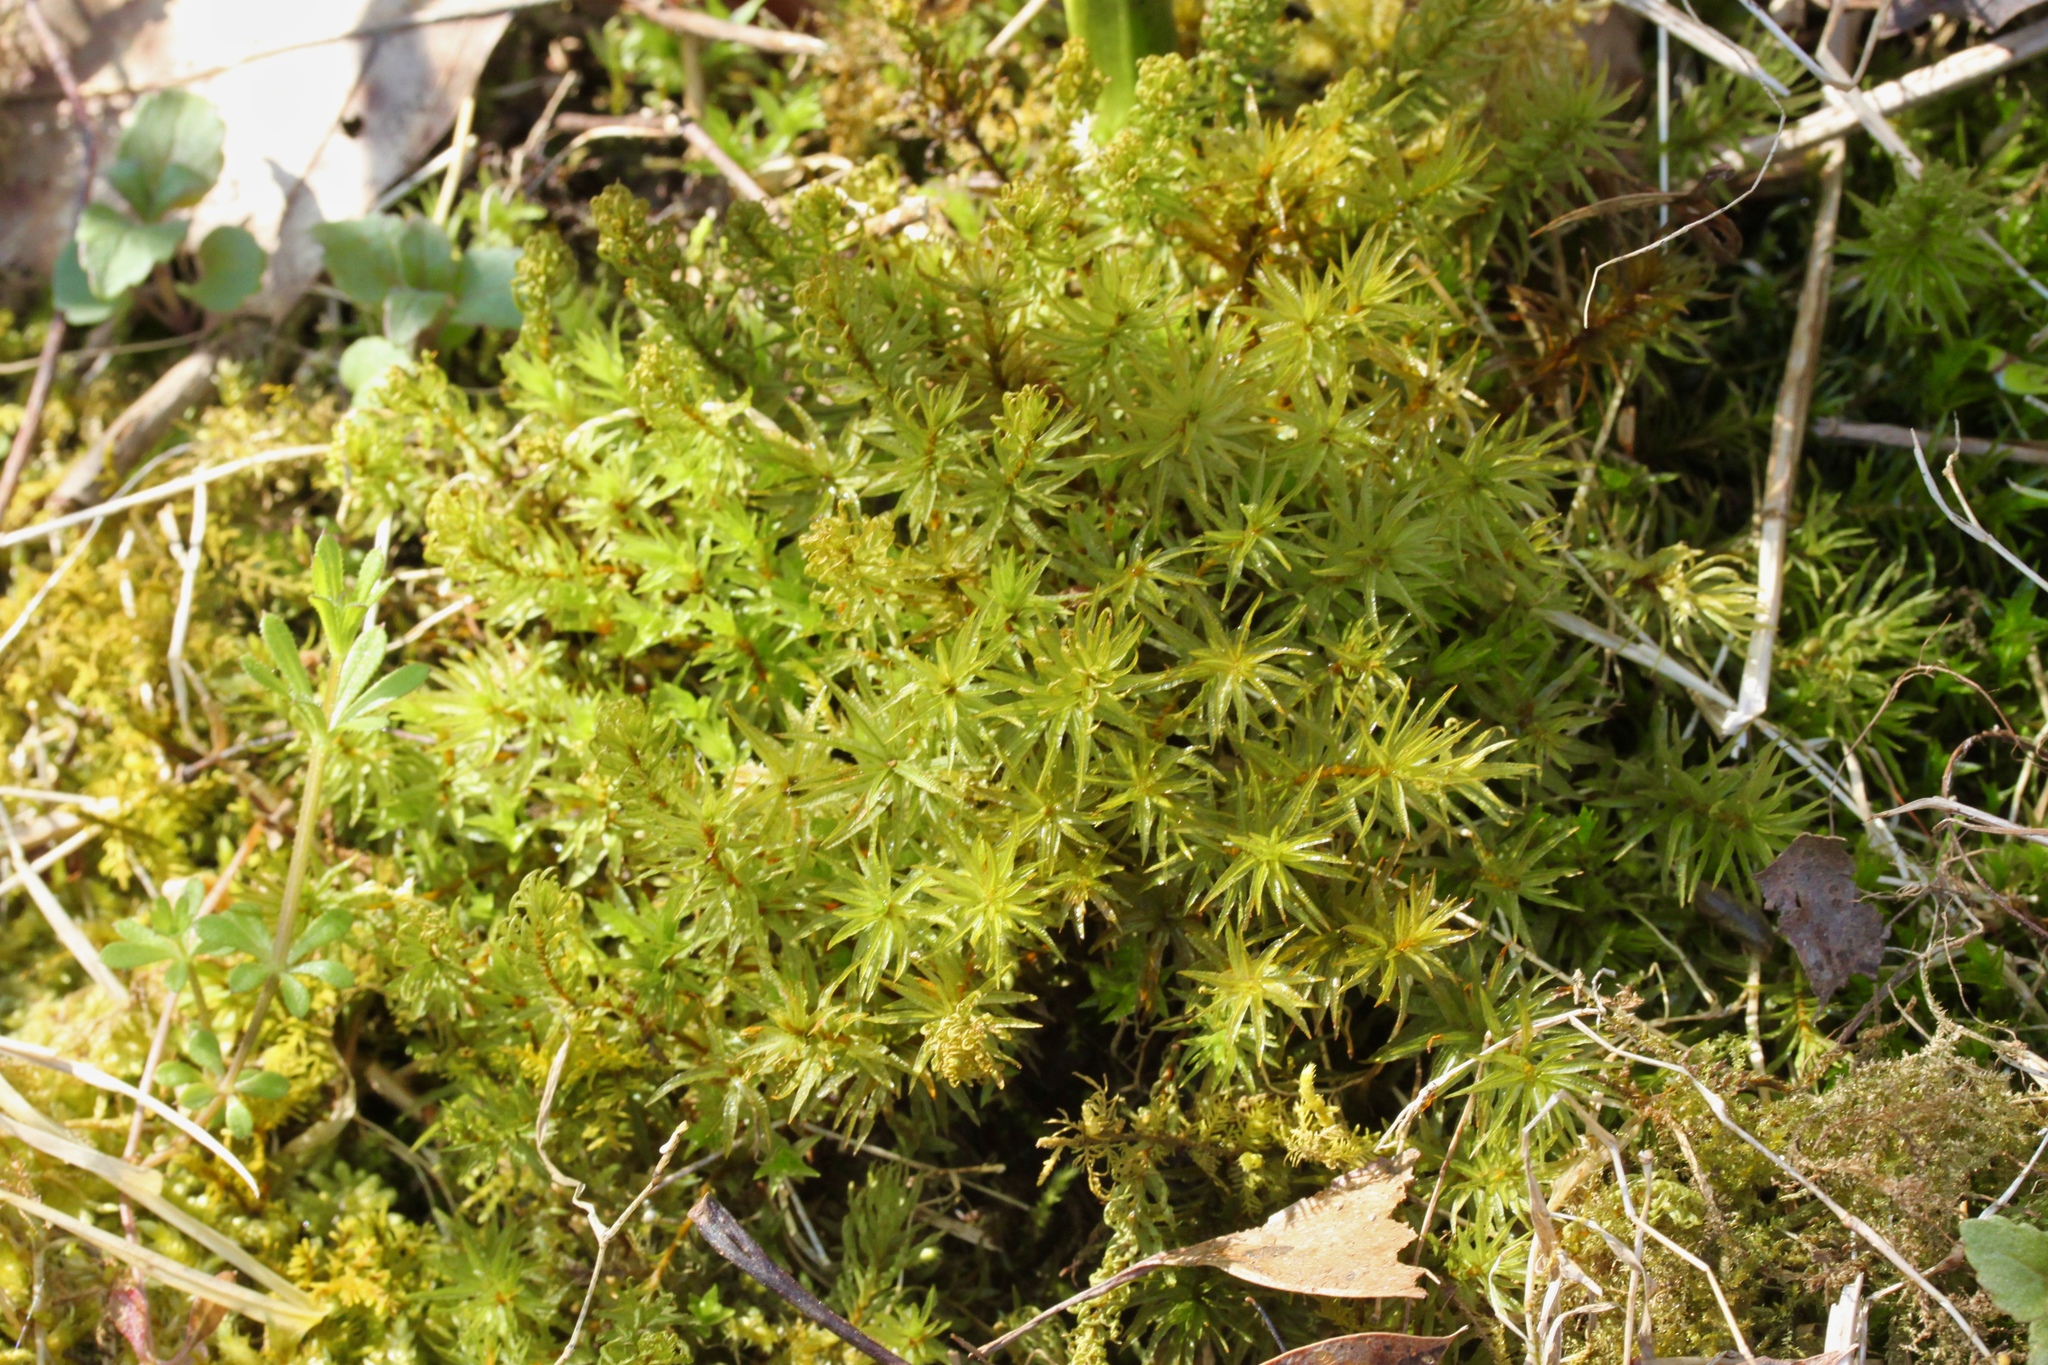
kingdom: Plantae
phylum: Bryophyta
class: Polytrichopsida
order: Polytrichales
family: Polytrichaceae
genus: Atrichum
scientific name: Atrichum angustatum
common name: Lesser smoothcap
